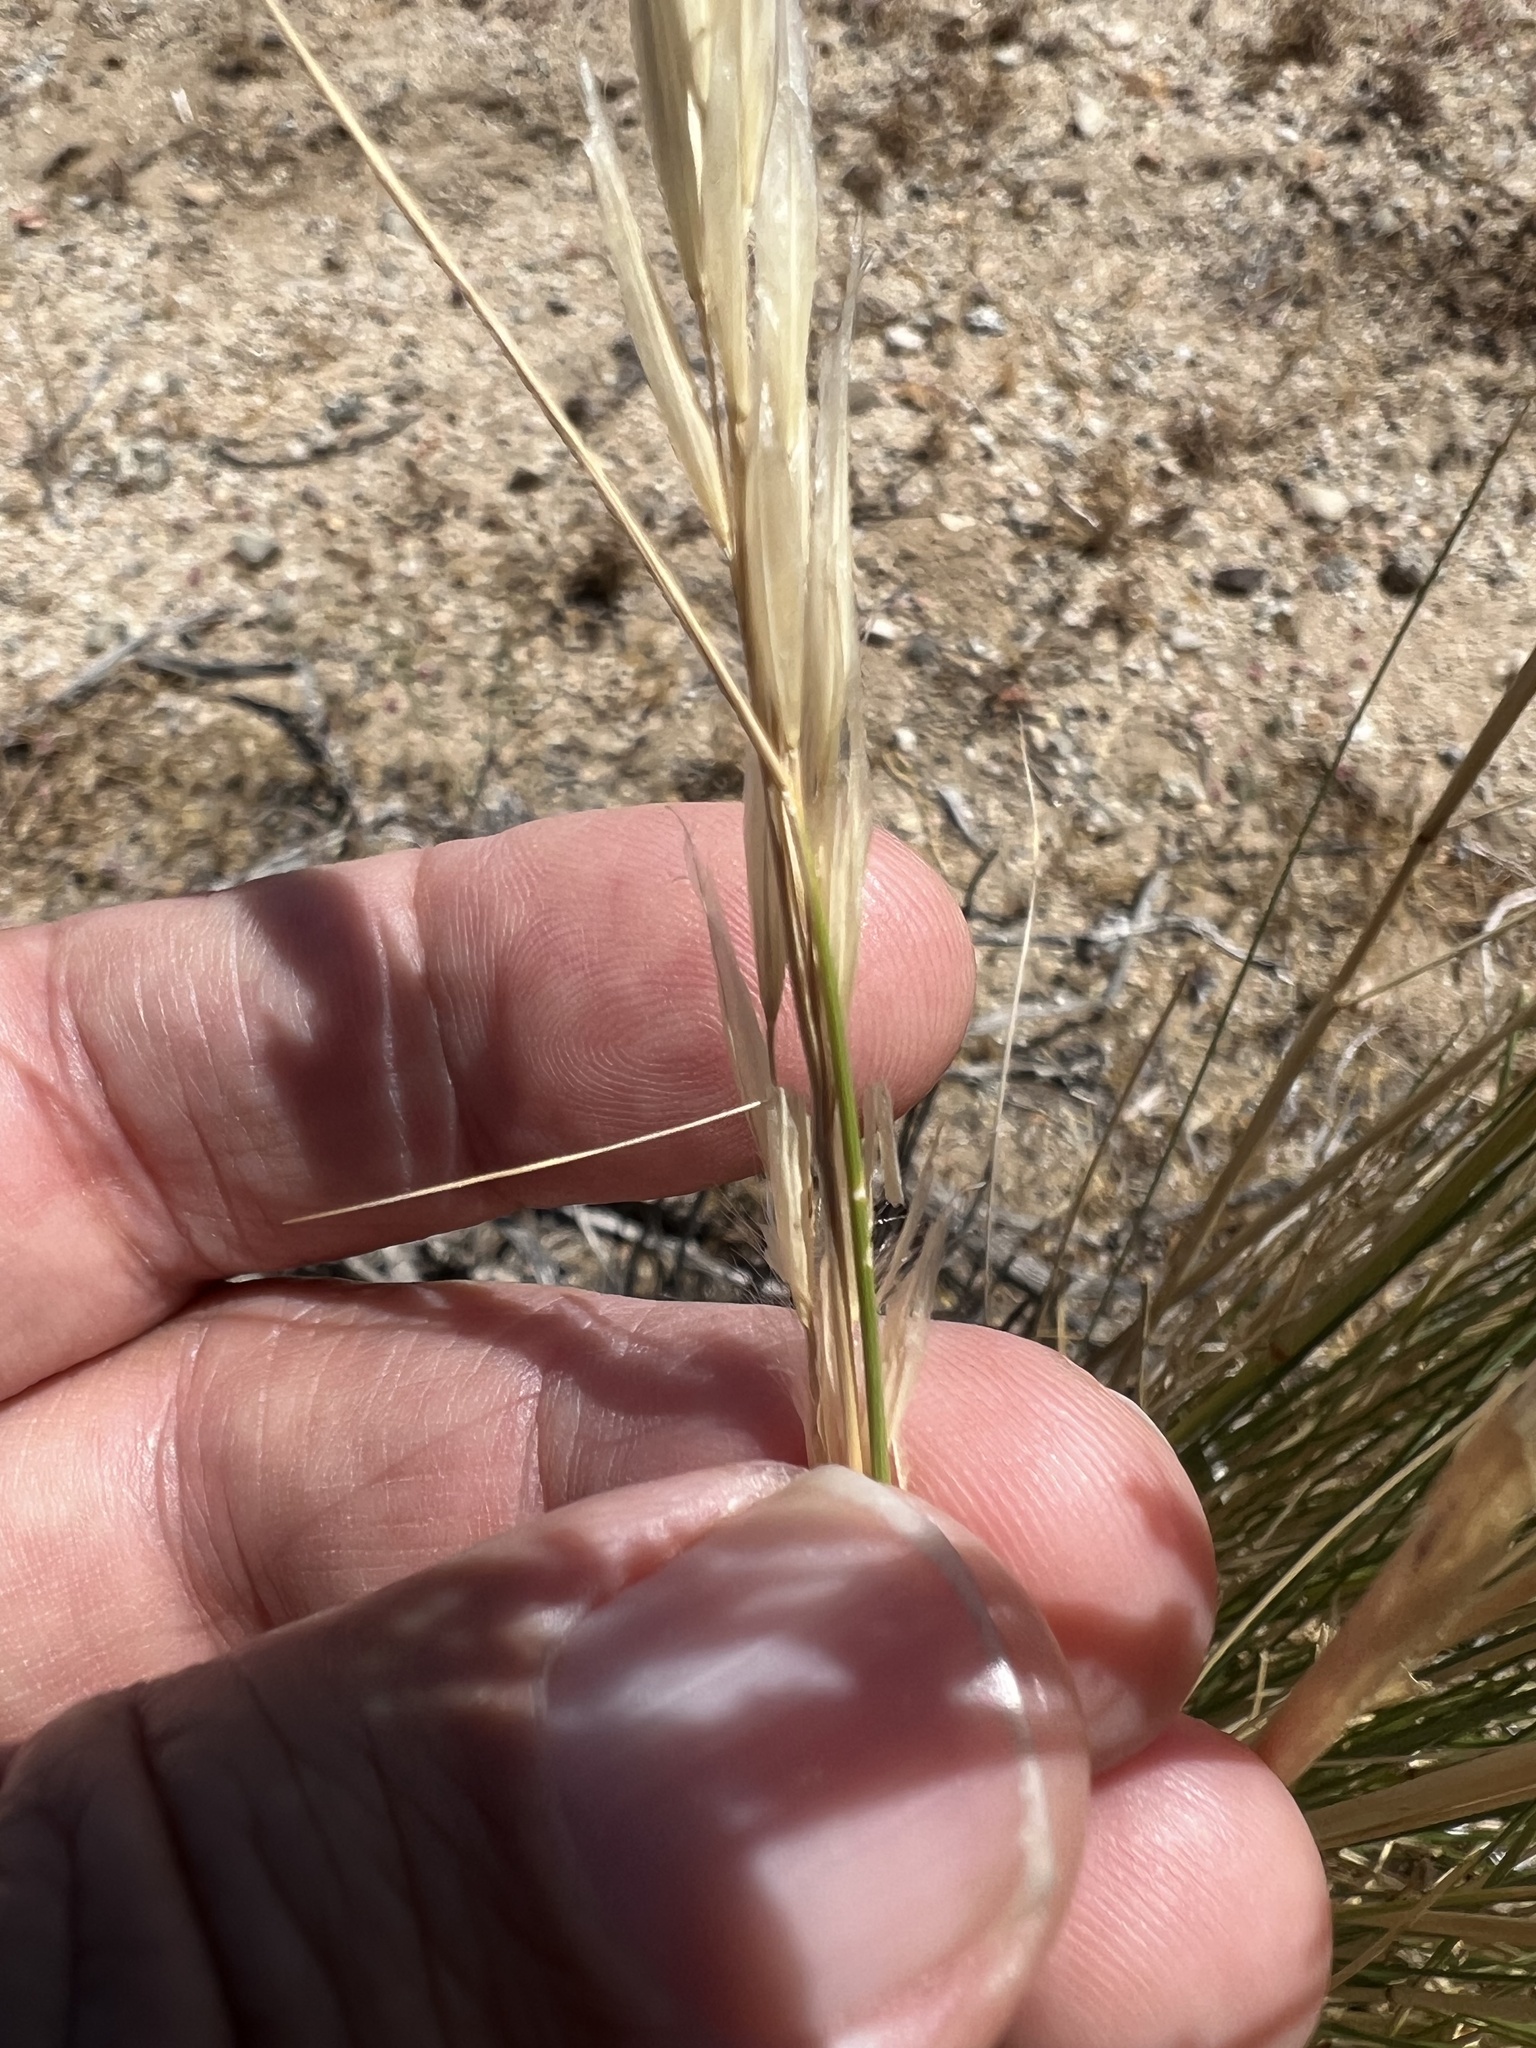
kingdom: Plantae
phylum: Tracheophyta
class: Liliopsida
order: Poales
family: Poaceae
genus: Pappostipa
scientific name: Pappostipa speciosa
